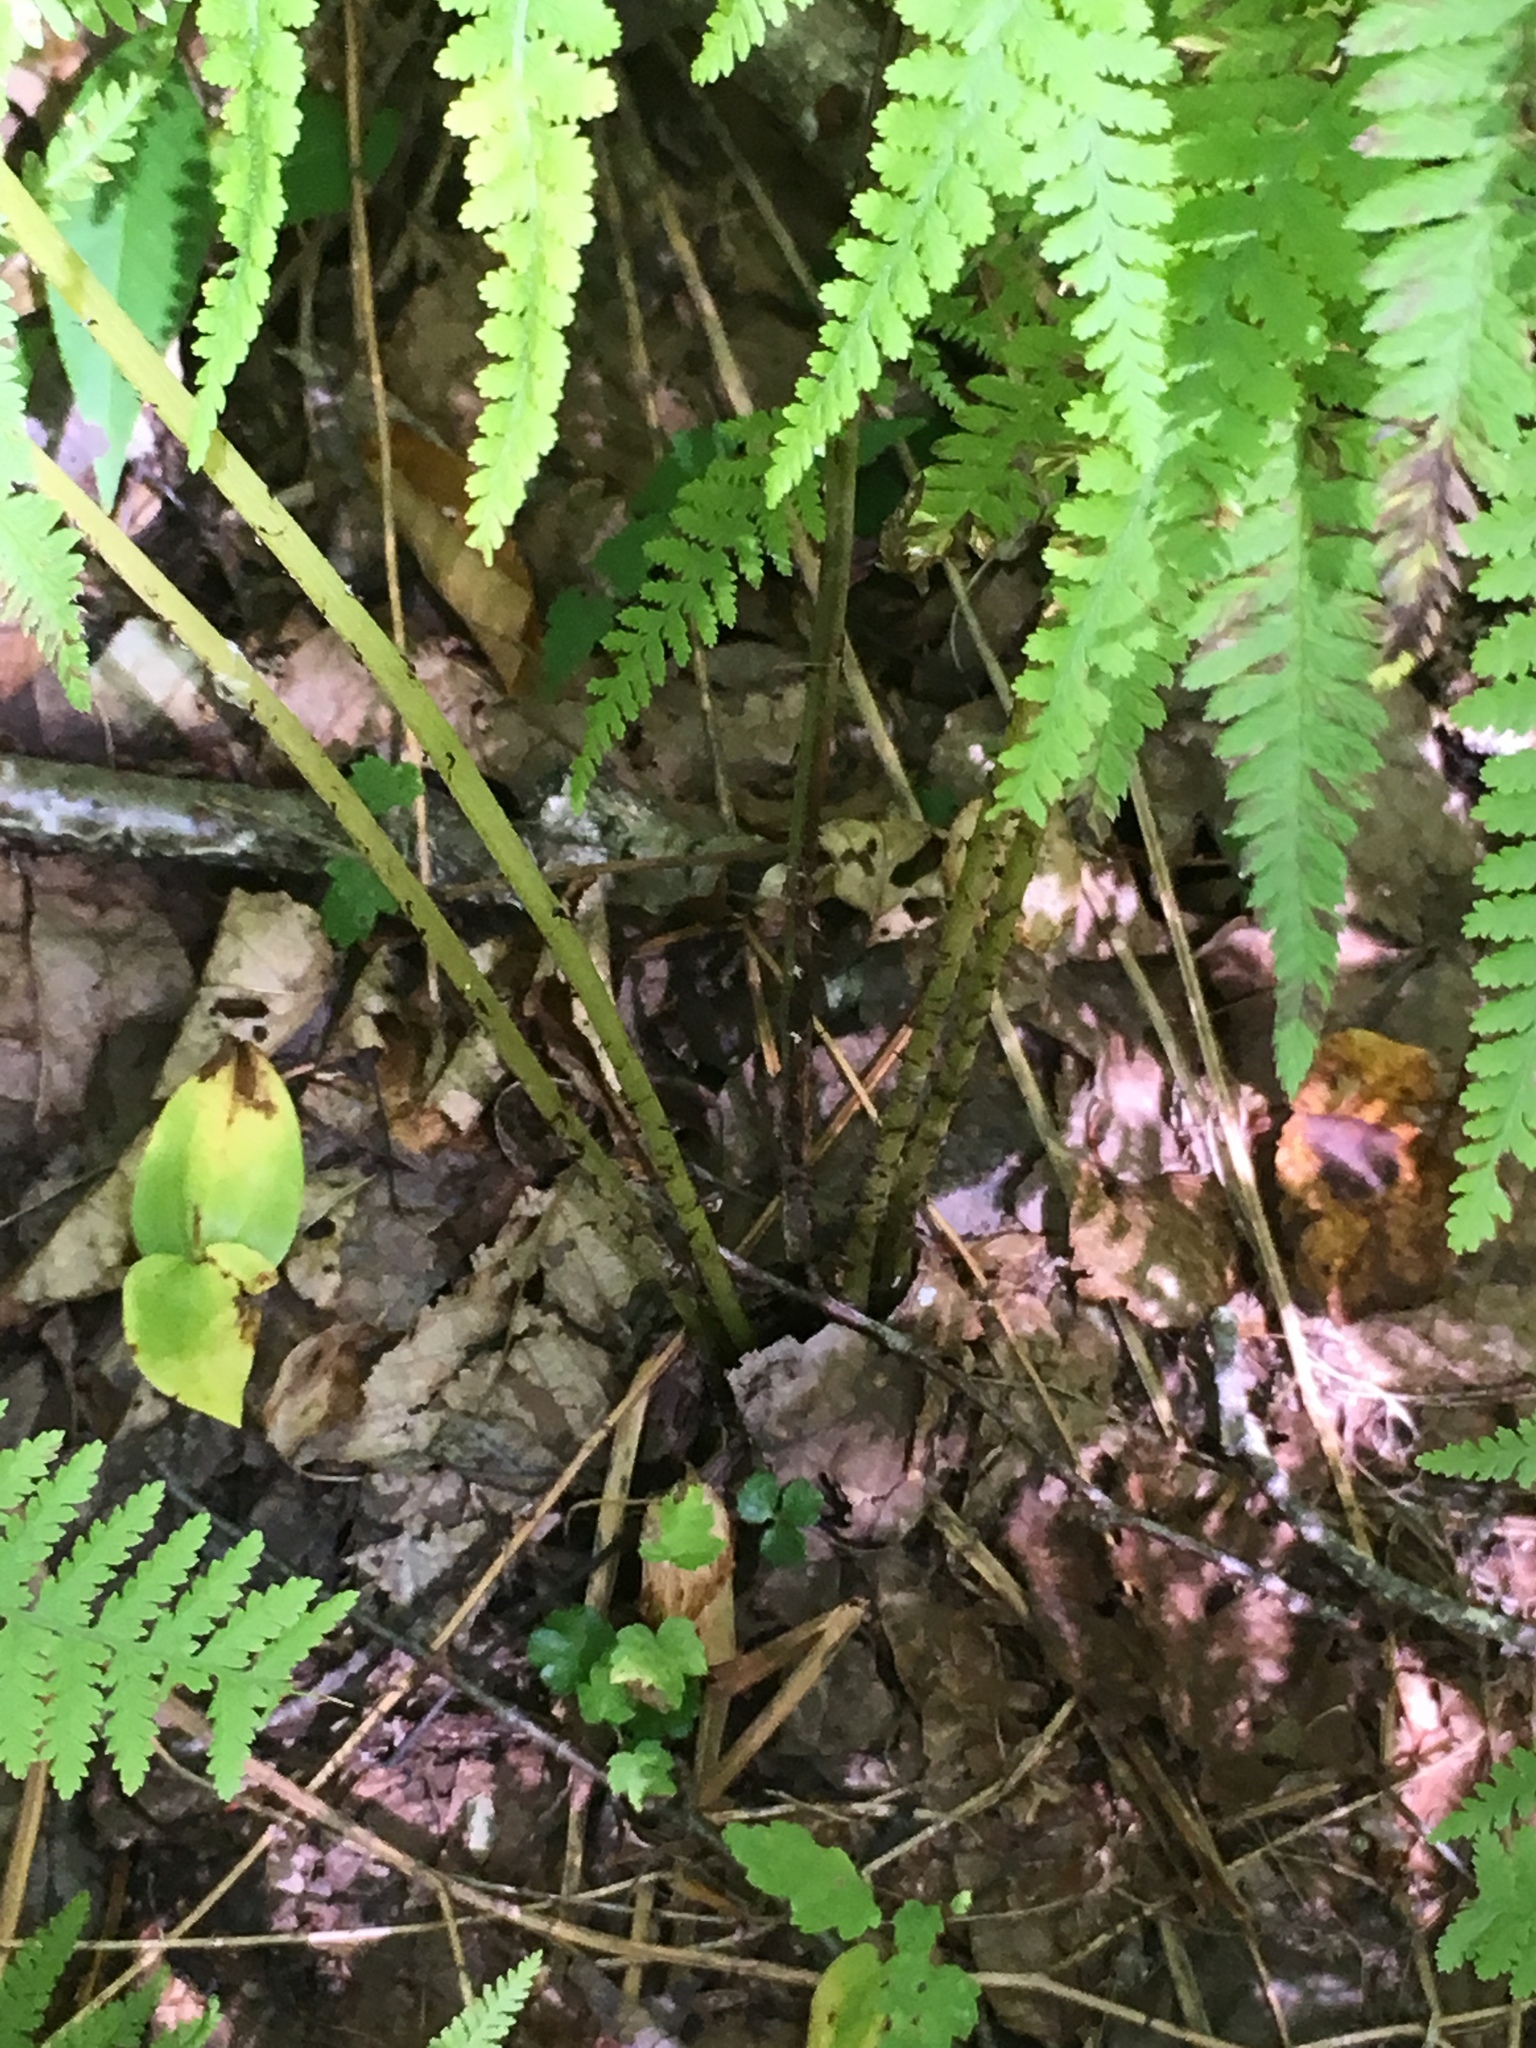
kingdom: Plantae
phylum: Tracheophyta
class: Polypodiopsida
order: Polypodiales
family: Athyriaceae
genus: Athyrium
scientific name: Athyrium angustum
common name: Northern lady fern
